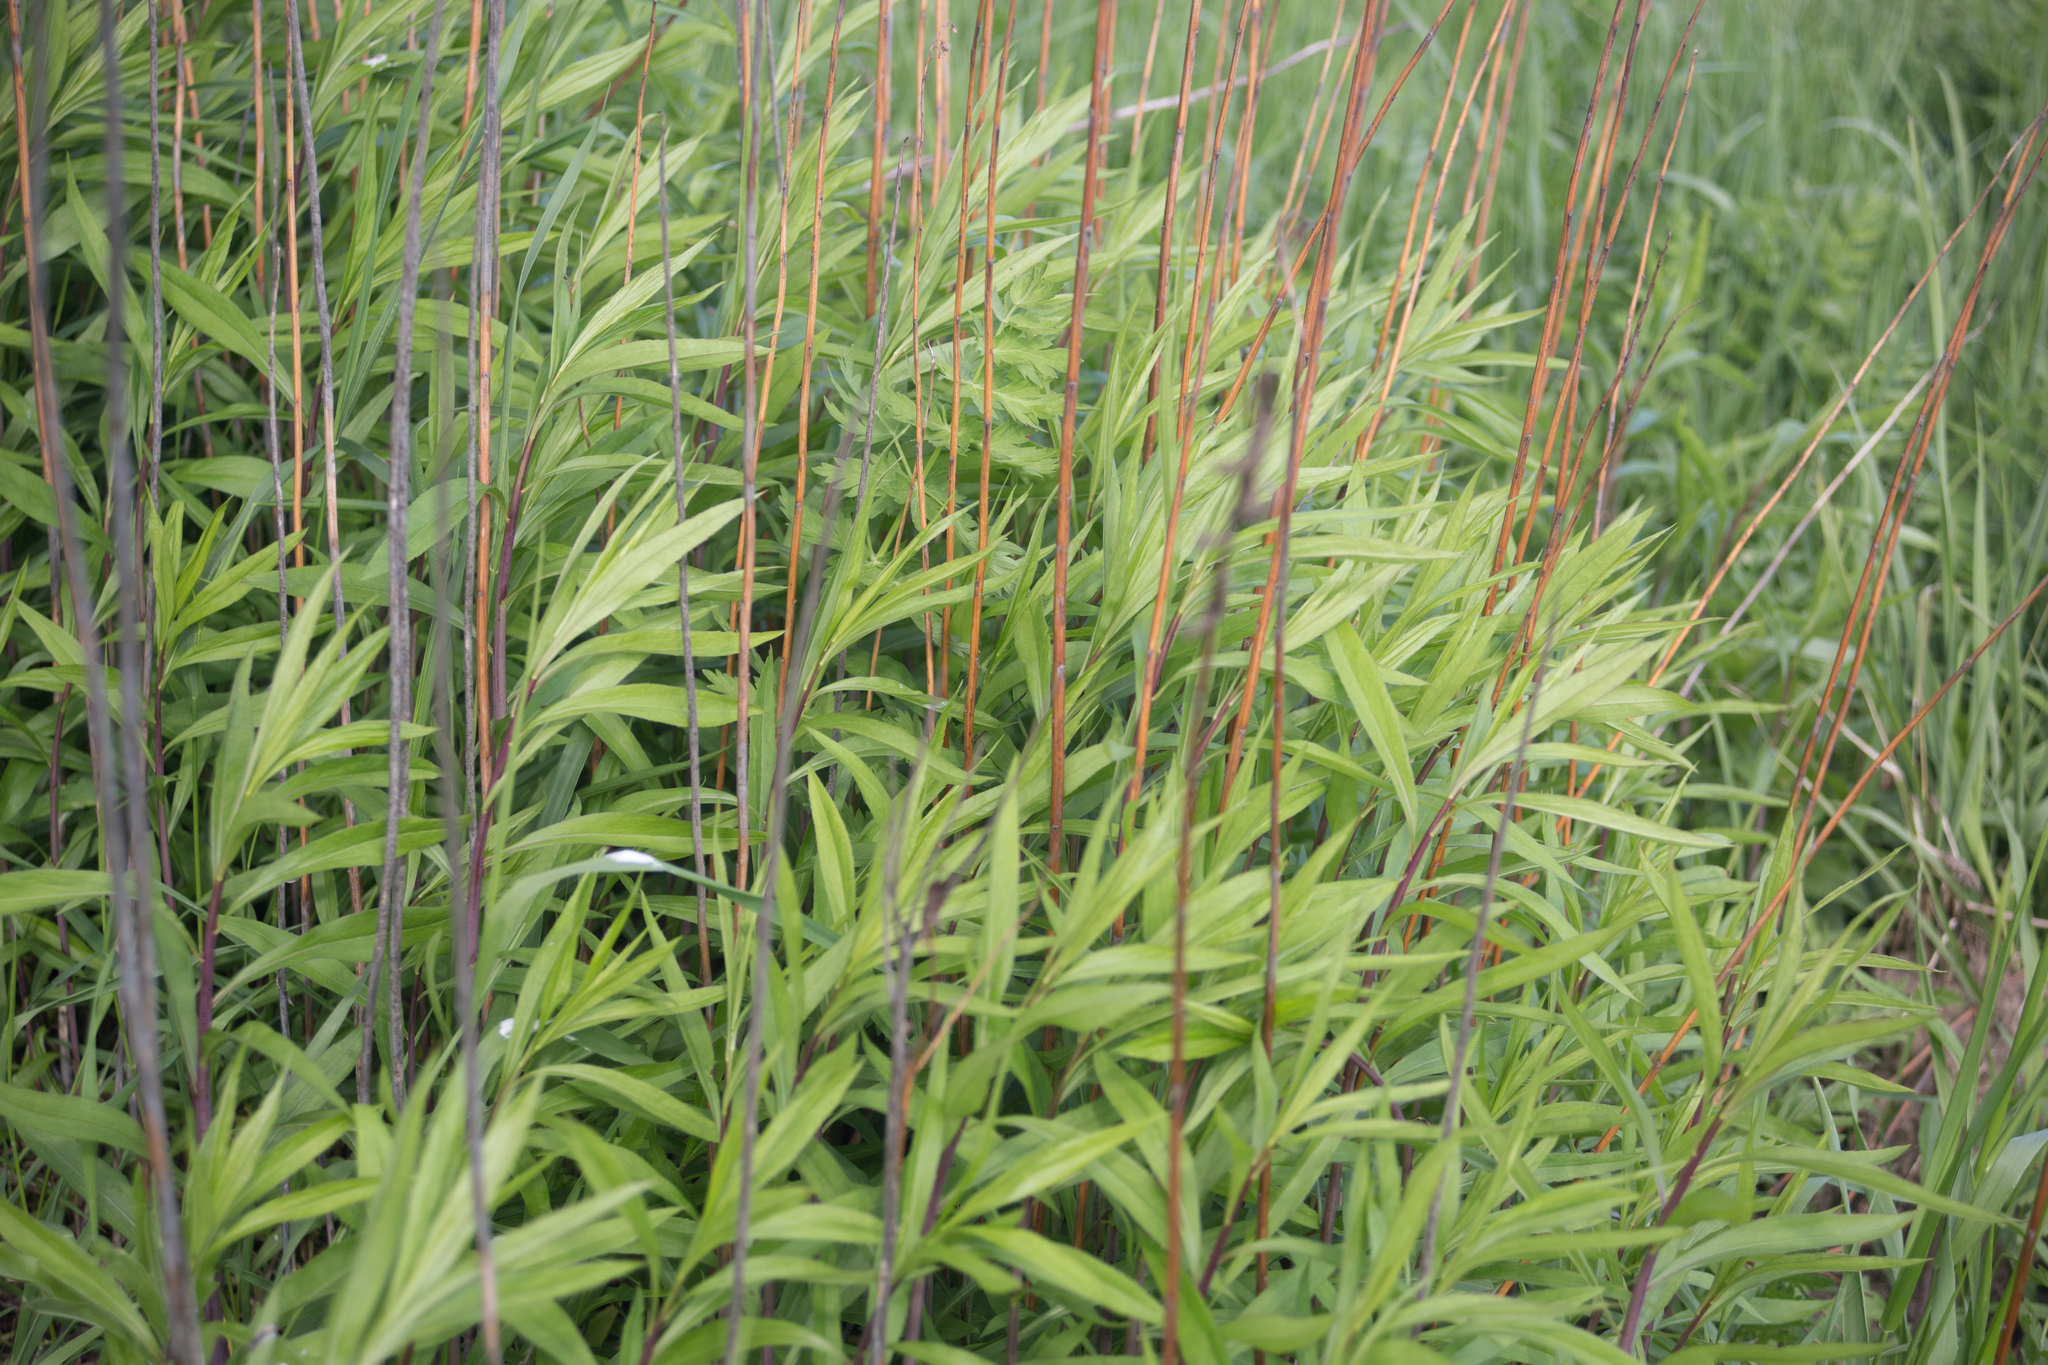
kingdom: Plantae
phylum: Tracheophyta
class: Magnoliopsida
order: Asterales
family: Asteraceae
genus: Solidago
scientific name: Solidago gigantea
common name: Giant goldenrod
